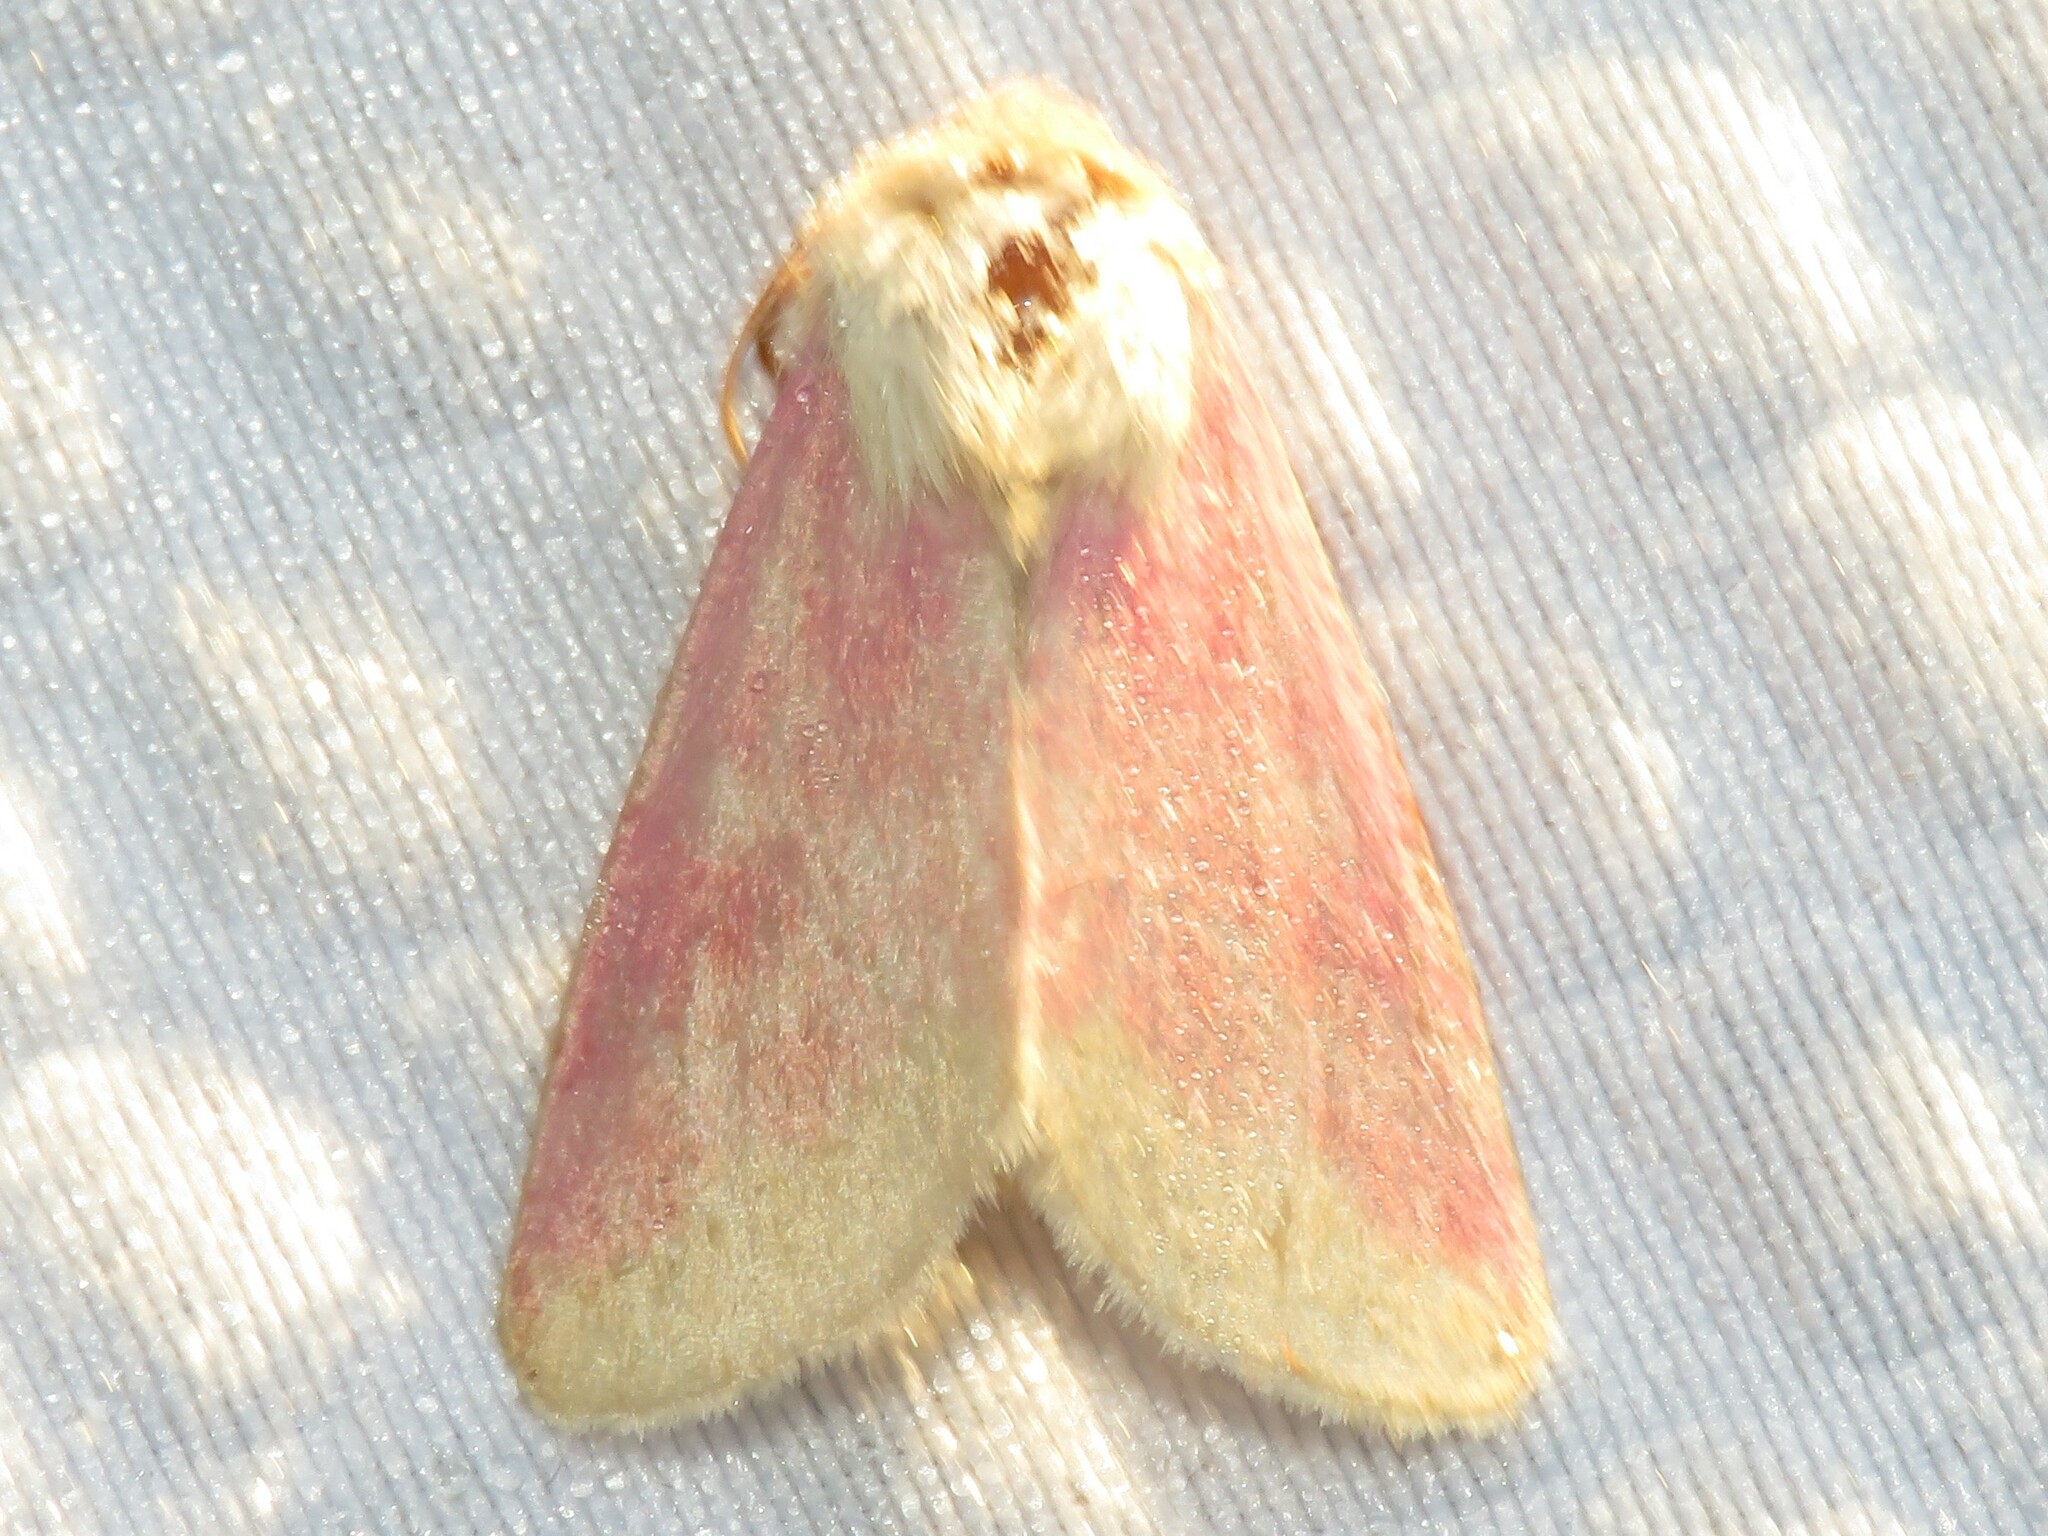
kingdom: Animalia
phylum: Arthropoda
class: Insecta
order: Lepidoptera
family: Noctuidae
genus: Schinia
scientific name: Schinia florida
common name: Primrose moth
